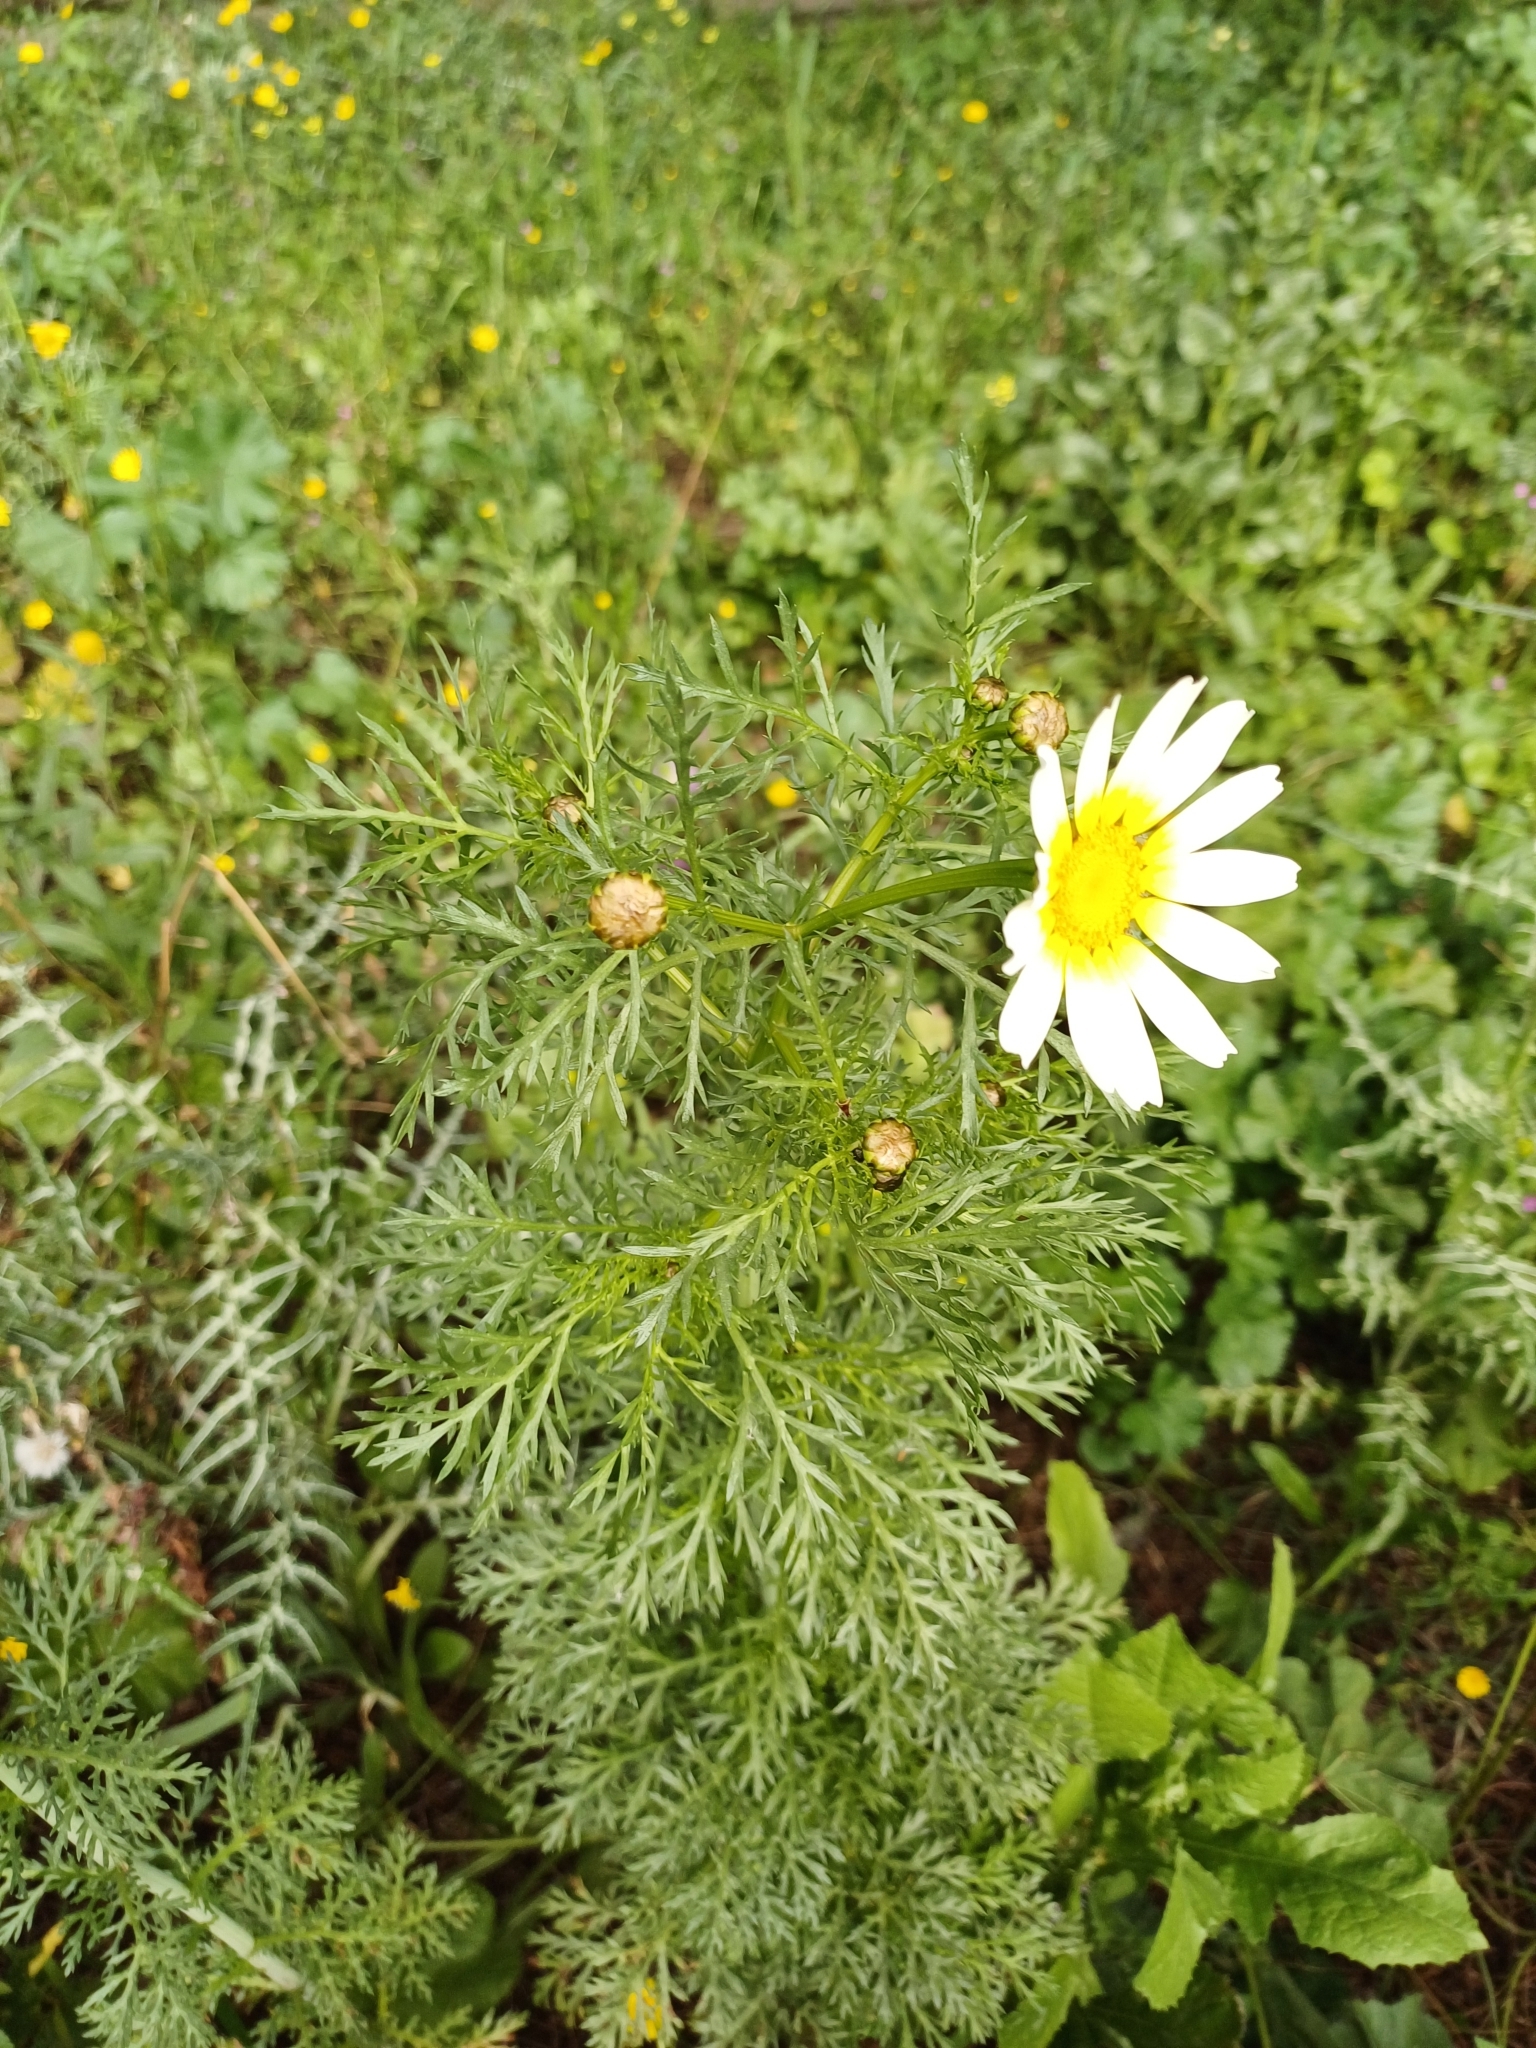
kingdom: Plantae
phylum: Tracheophyta
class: Magnoliopsida
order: Asterales
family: Asteraceae
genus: Glebionis
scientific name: Glebionis coronaria
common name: Crowndaisy
